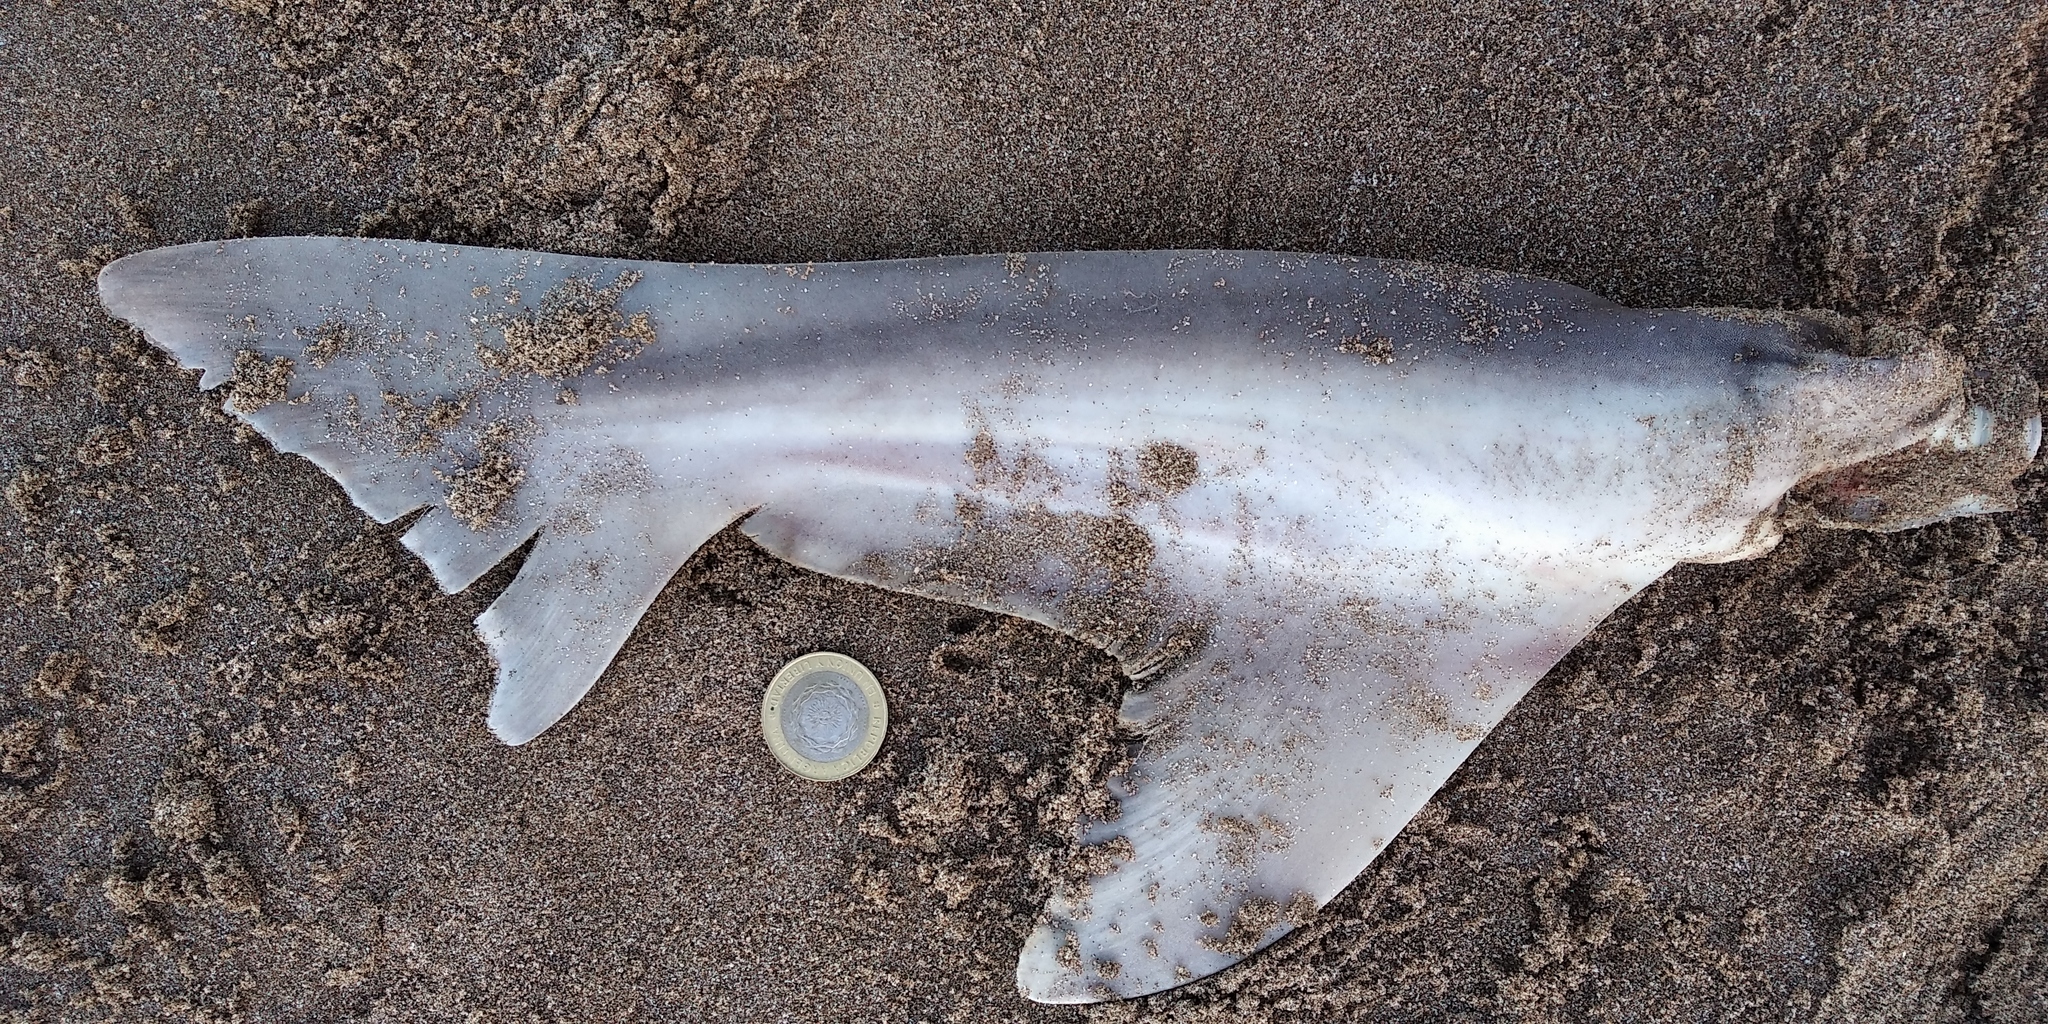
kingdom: Animalia
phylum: Chordata
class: Elasmobranchii
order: Carcharhiniformes
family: Triakidae
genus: Galeorhinus
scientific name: Galeorhinus galeus
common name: Tope
